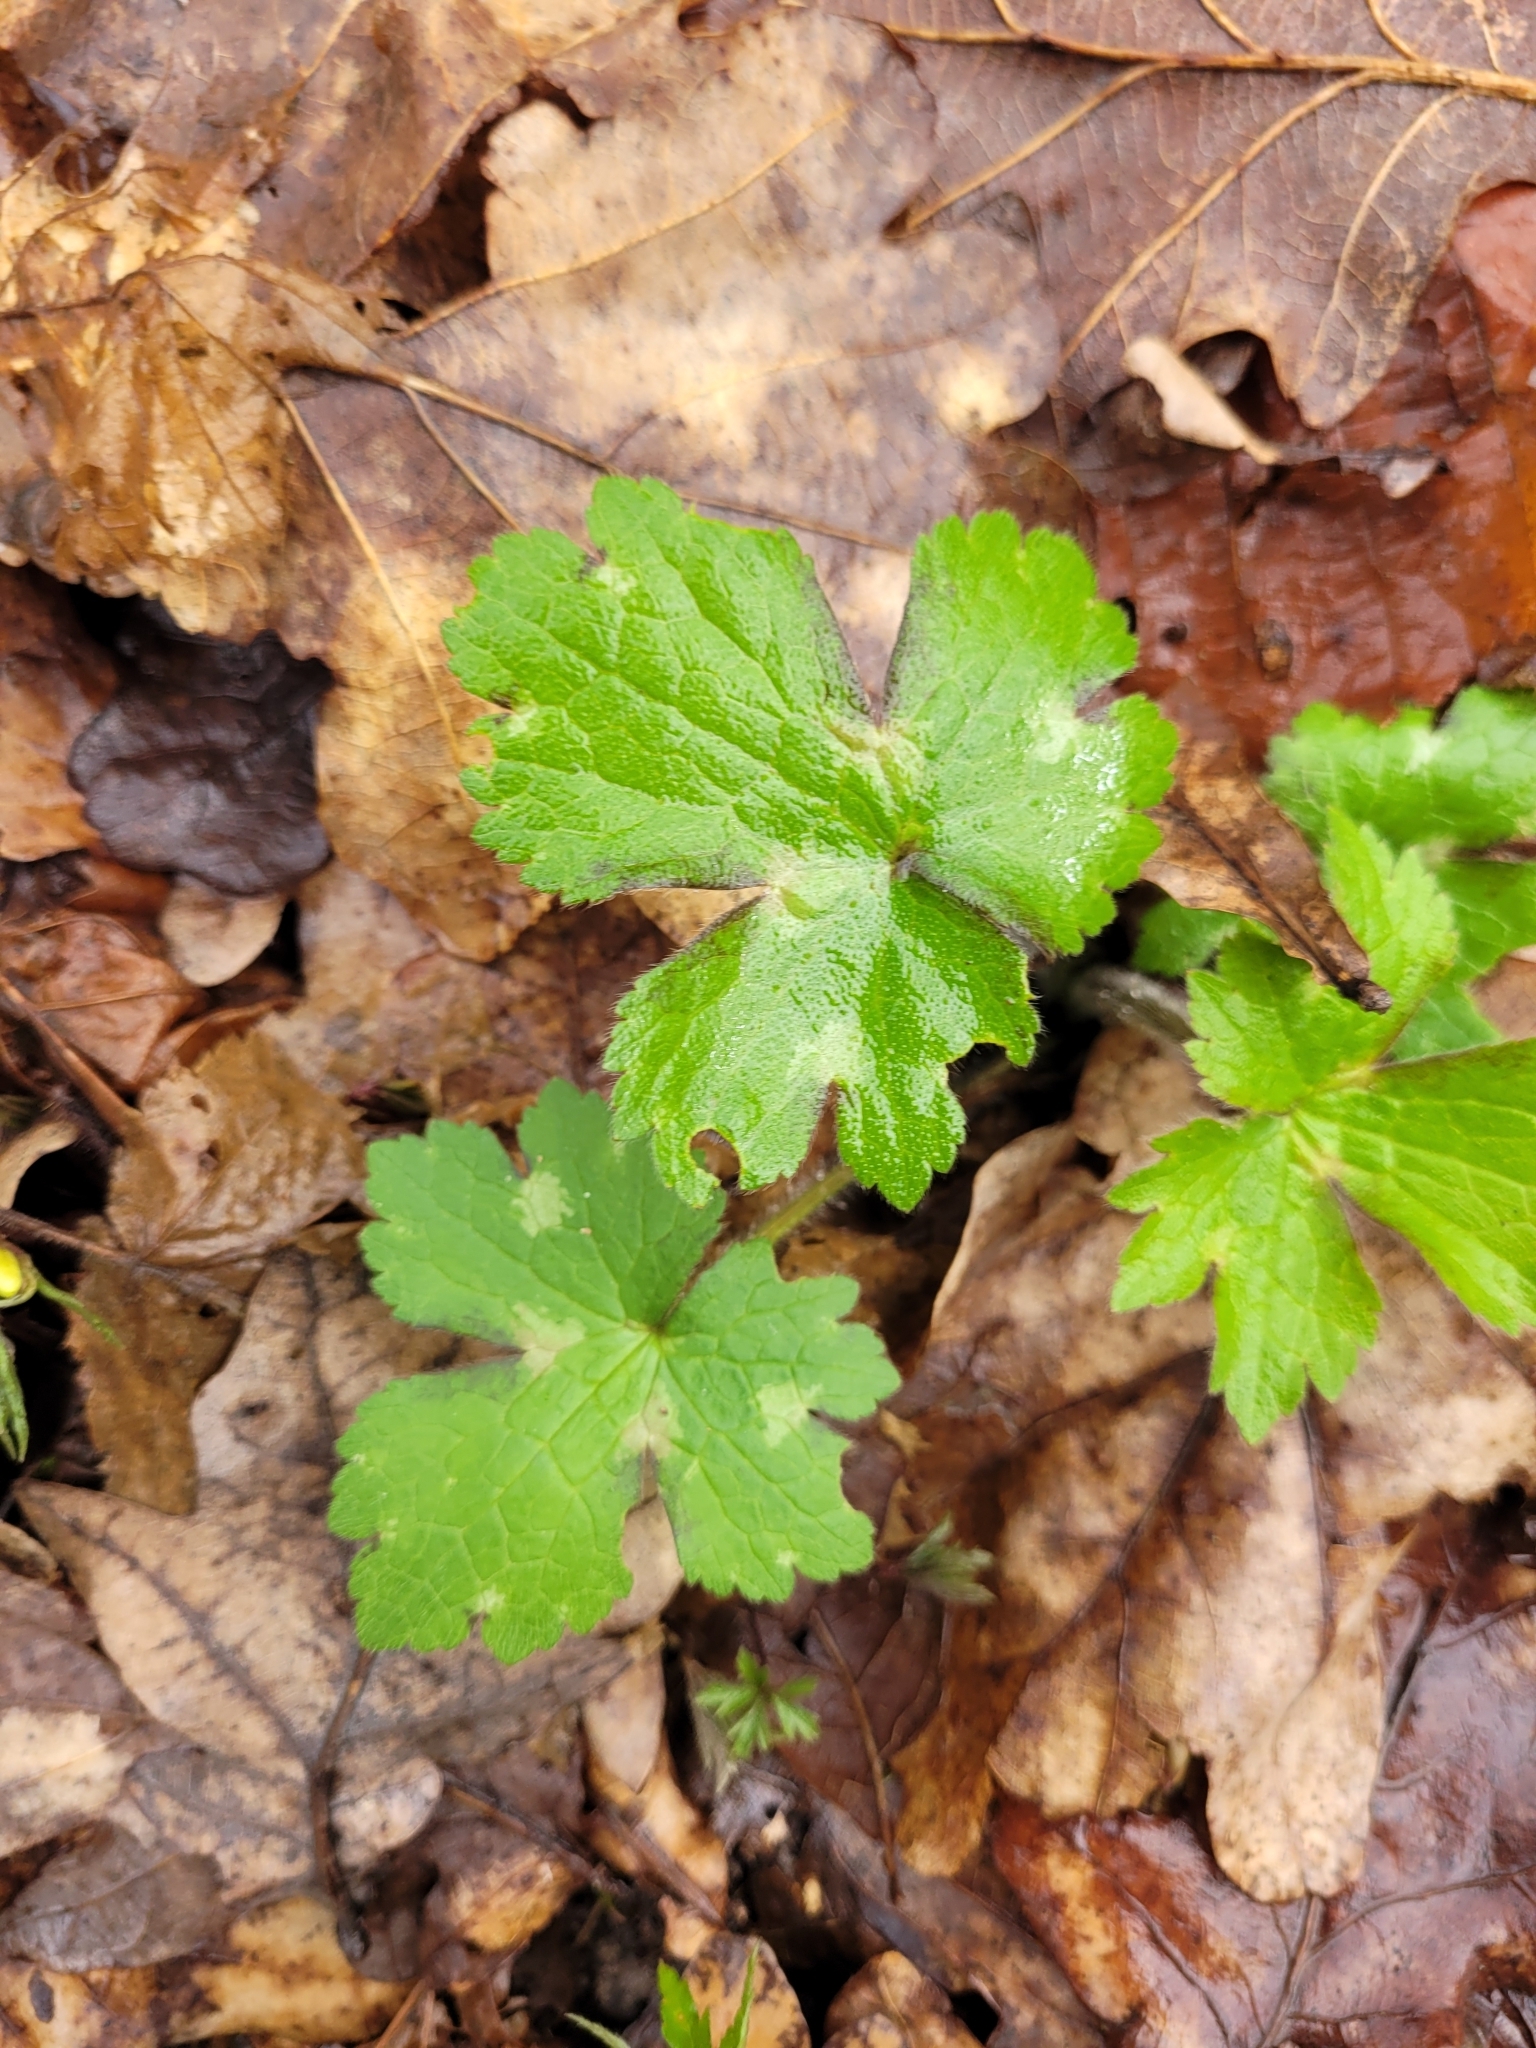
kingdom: Plantae
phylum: Tracheophyta
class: Magnoliopsida
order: Ranunculales
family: Ranunculaceae
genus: Ranunculus
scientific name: Ranunculus lanuginosus
